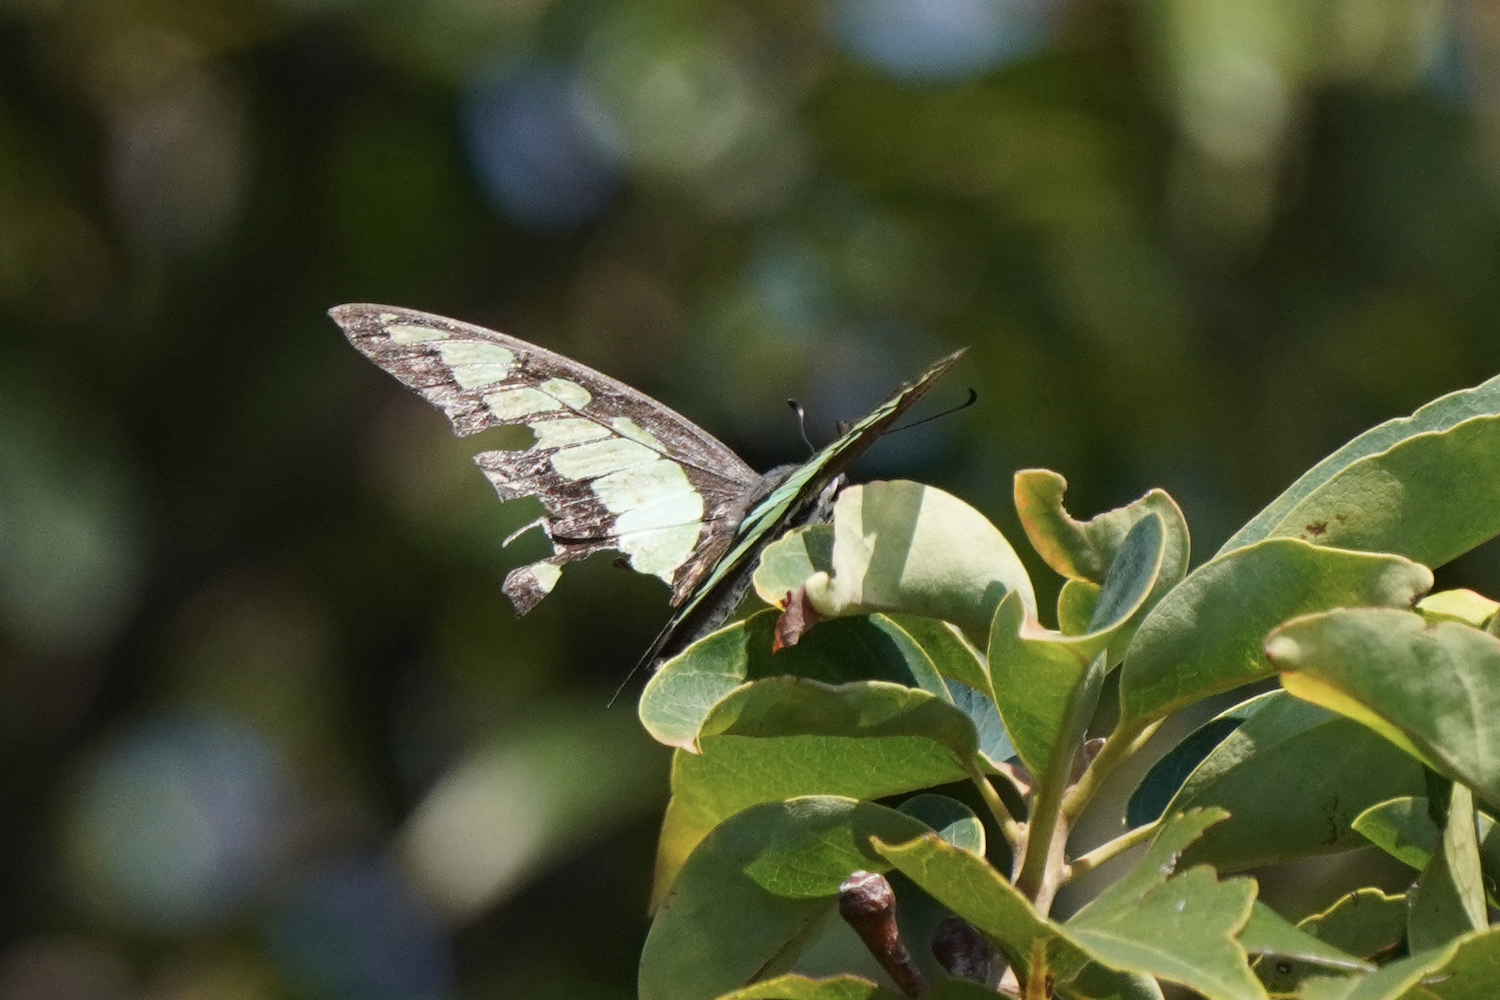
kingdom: Animalia
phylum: Arthropoda
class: Insecta
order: Lepidoptera
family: Papilionidae
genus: Graphium
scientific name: Graphium cloanthus
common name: Glassy bluebottle
